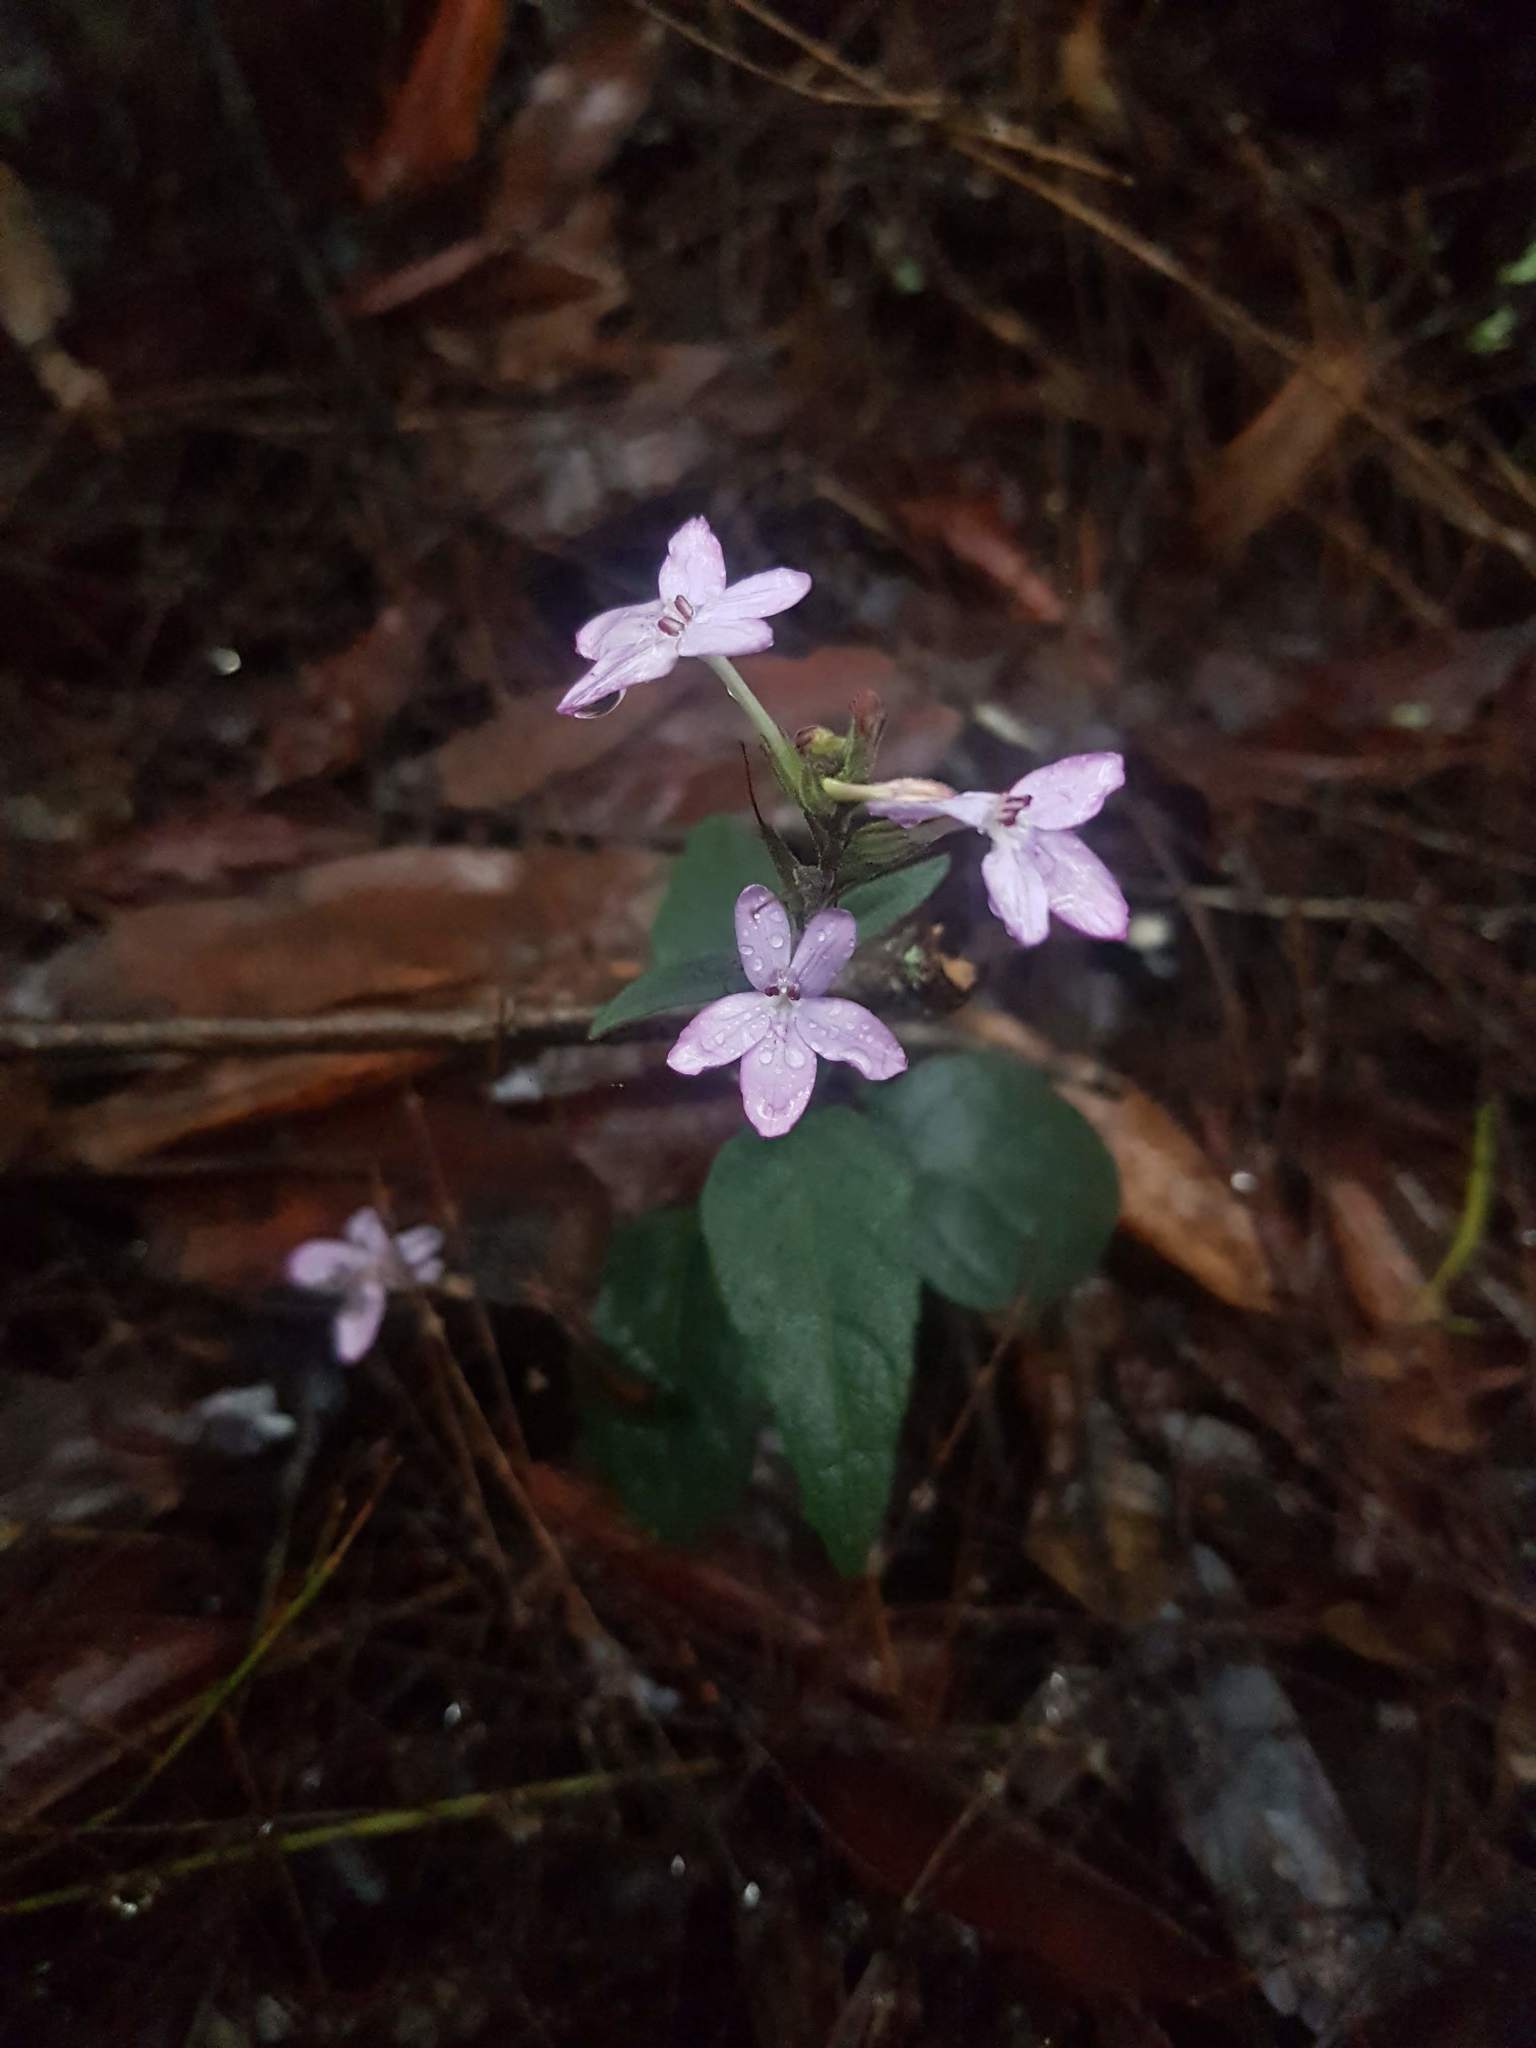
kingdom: Plantae
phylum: Tracheophyta
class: Magnoliopsida
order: Lamiales
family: Acanthaceae
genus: Pseuderanthemum
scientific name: Pseuderanthemum variabile
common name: Night and afternoon
